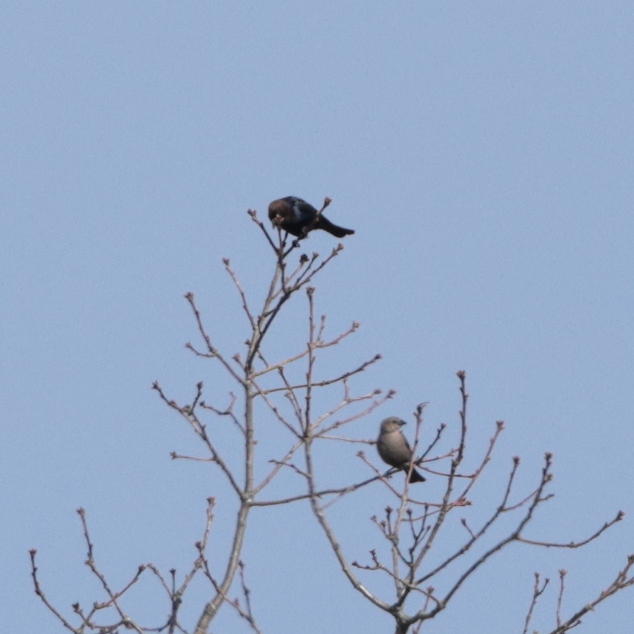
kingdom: Animalia
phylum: Chordata
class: Aves
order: Passeriformes
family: Icteridae
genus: Molothrus
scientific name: Molothrus ater
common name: Brown-headed cowbird
